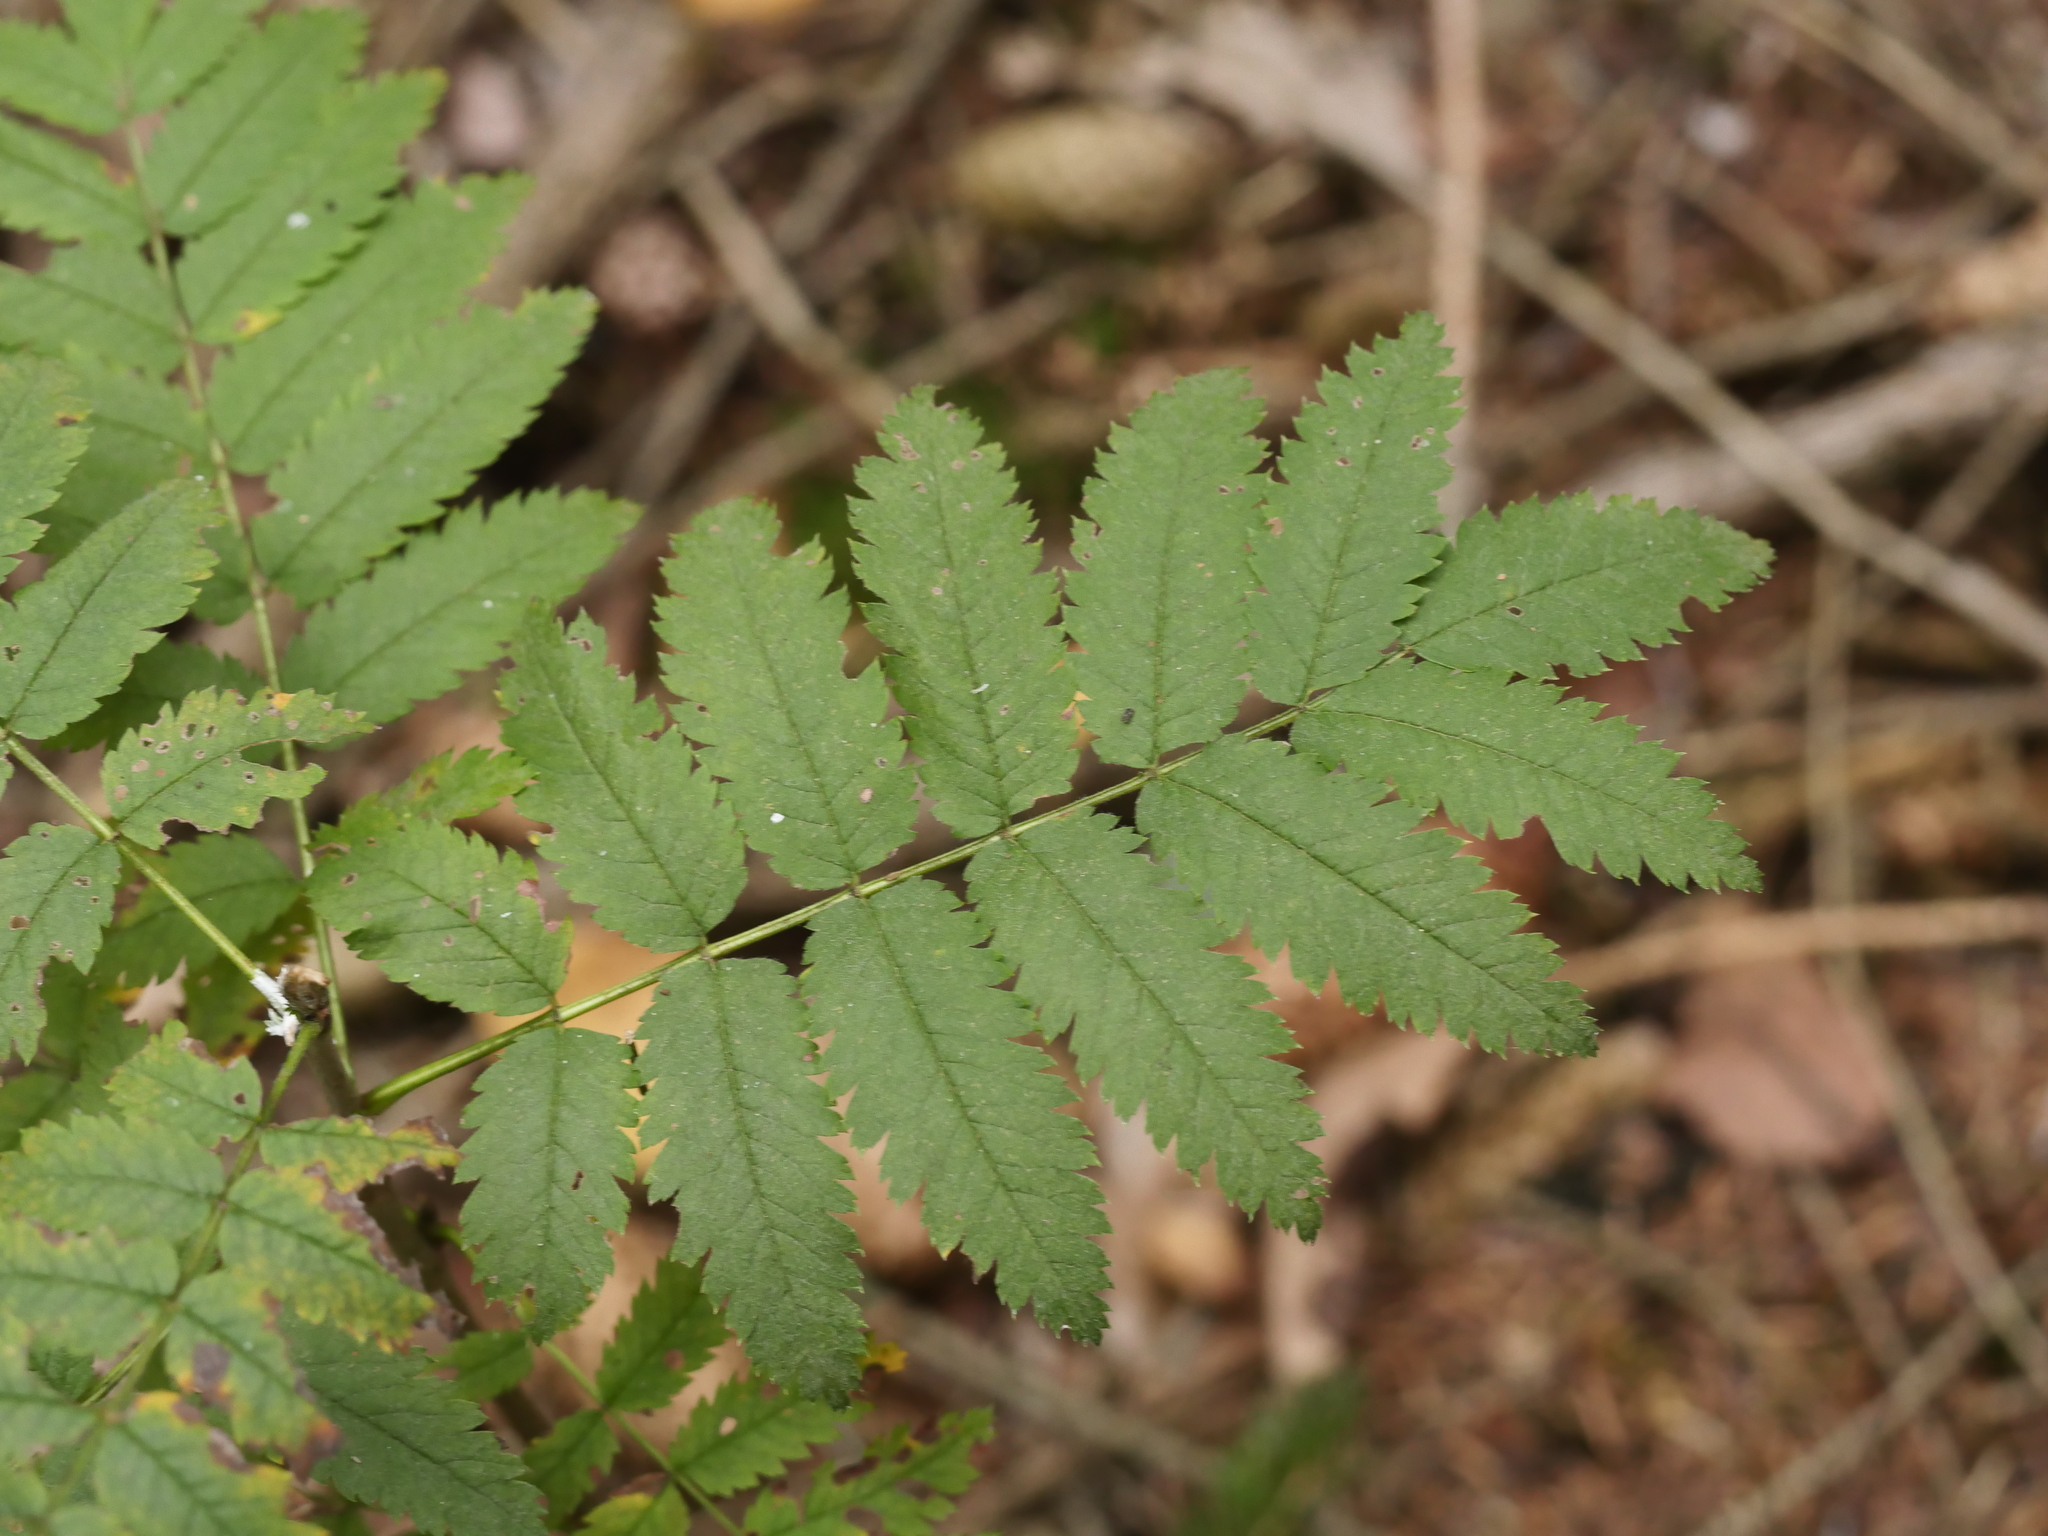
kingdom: Plantae
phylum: Tracheophyta
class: Magnoliopsida
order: Rosales
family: Rosaceae
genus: Sorbus
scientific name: Sorbus aucuparia
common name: Rowan
